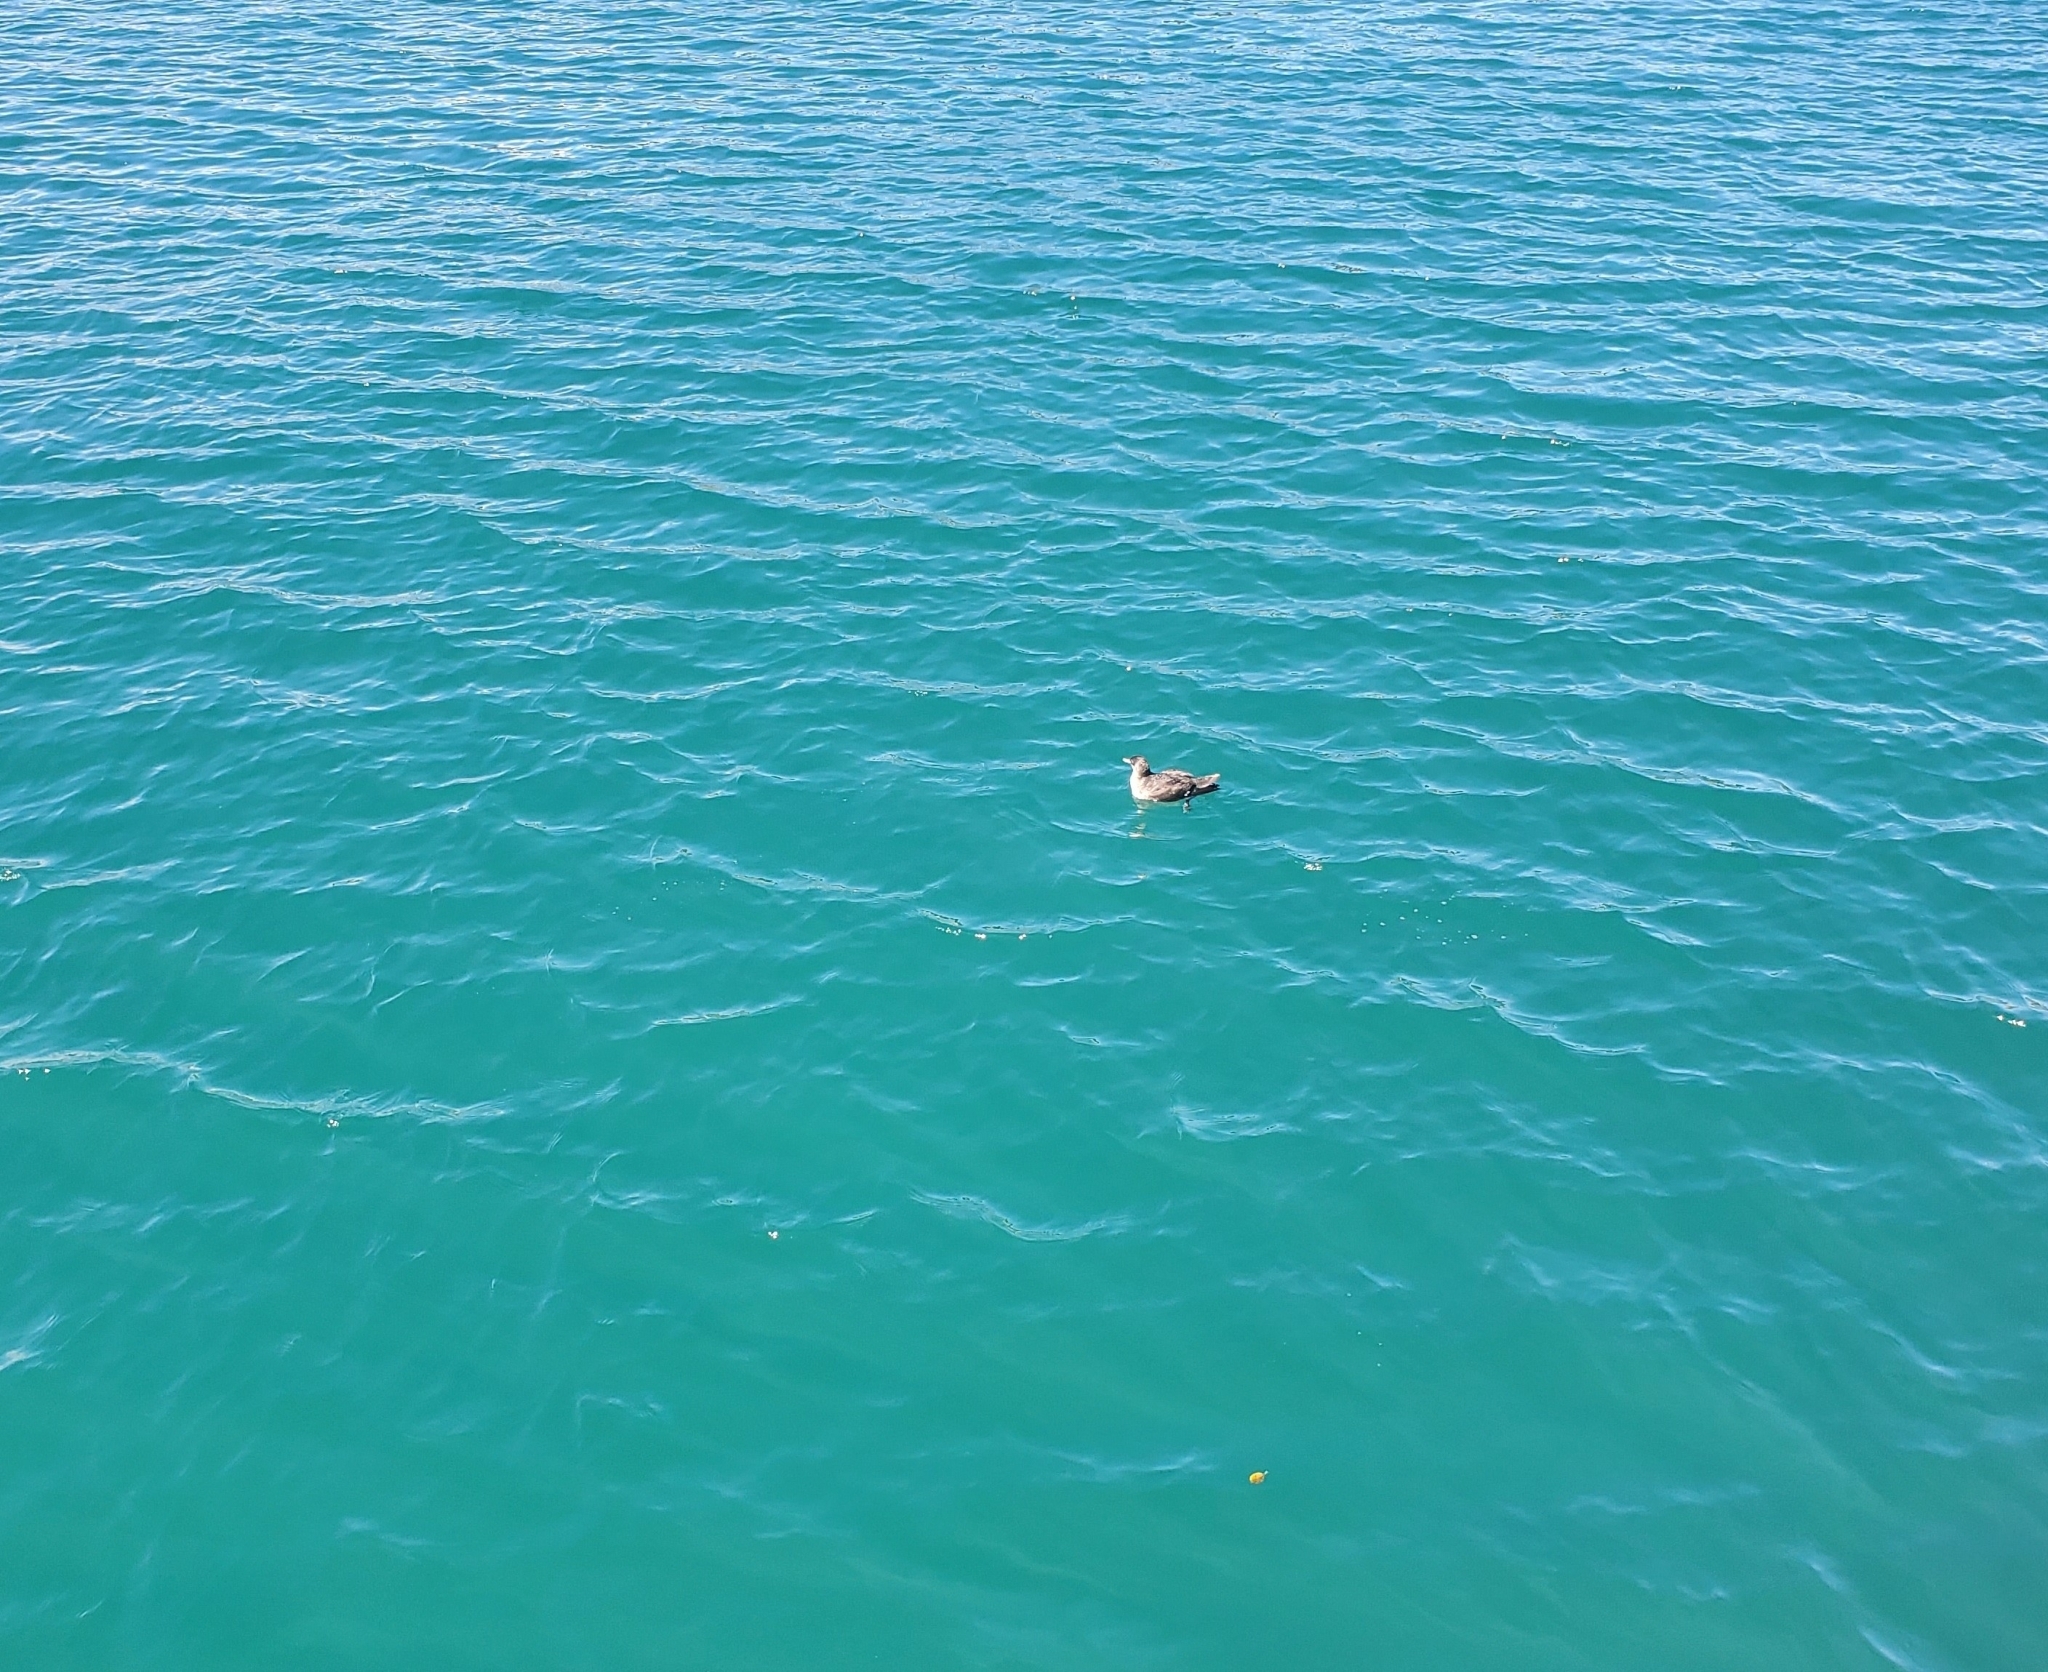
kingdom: Animalia
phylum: Chordata
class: Aves
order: Procellariiformes
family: Procellariidae
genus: Puffinus
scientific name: Puffinus gavia
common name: Fluttering shearwater
